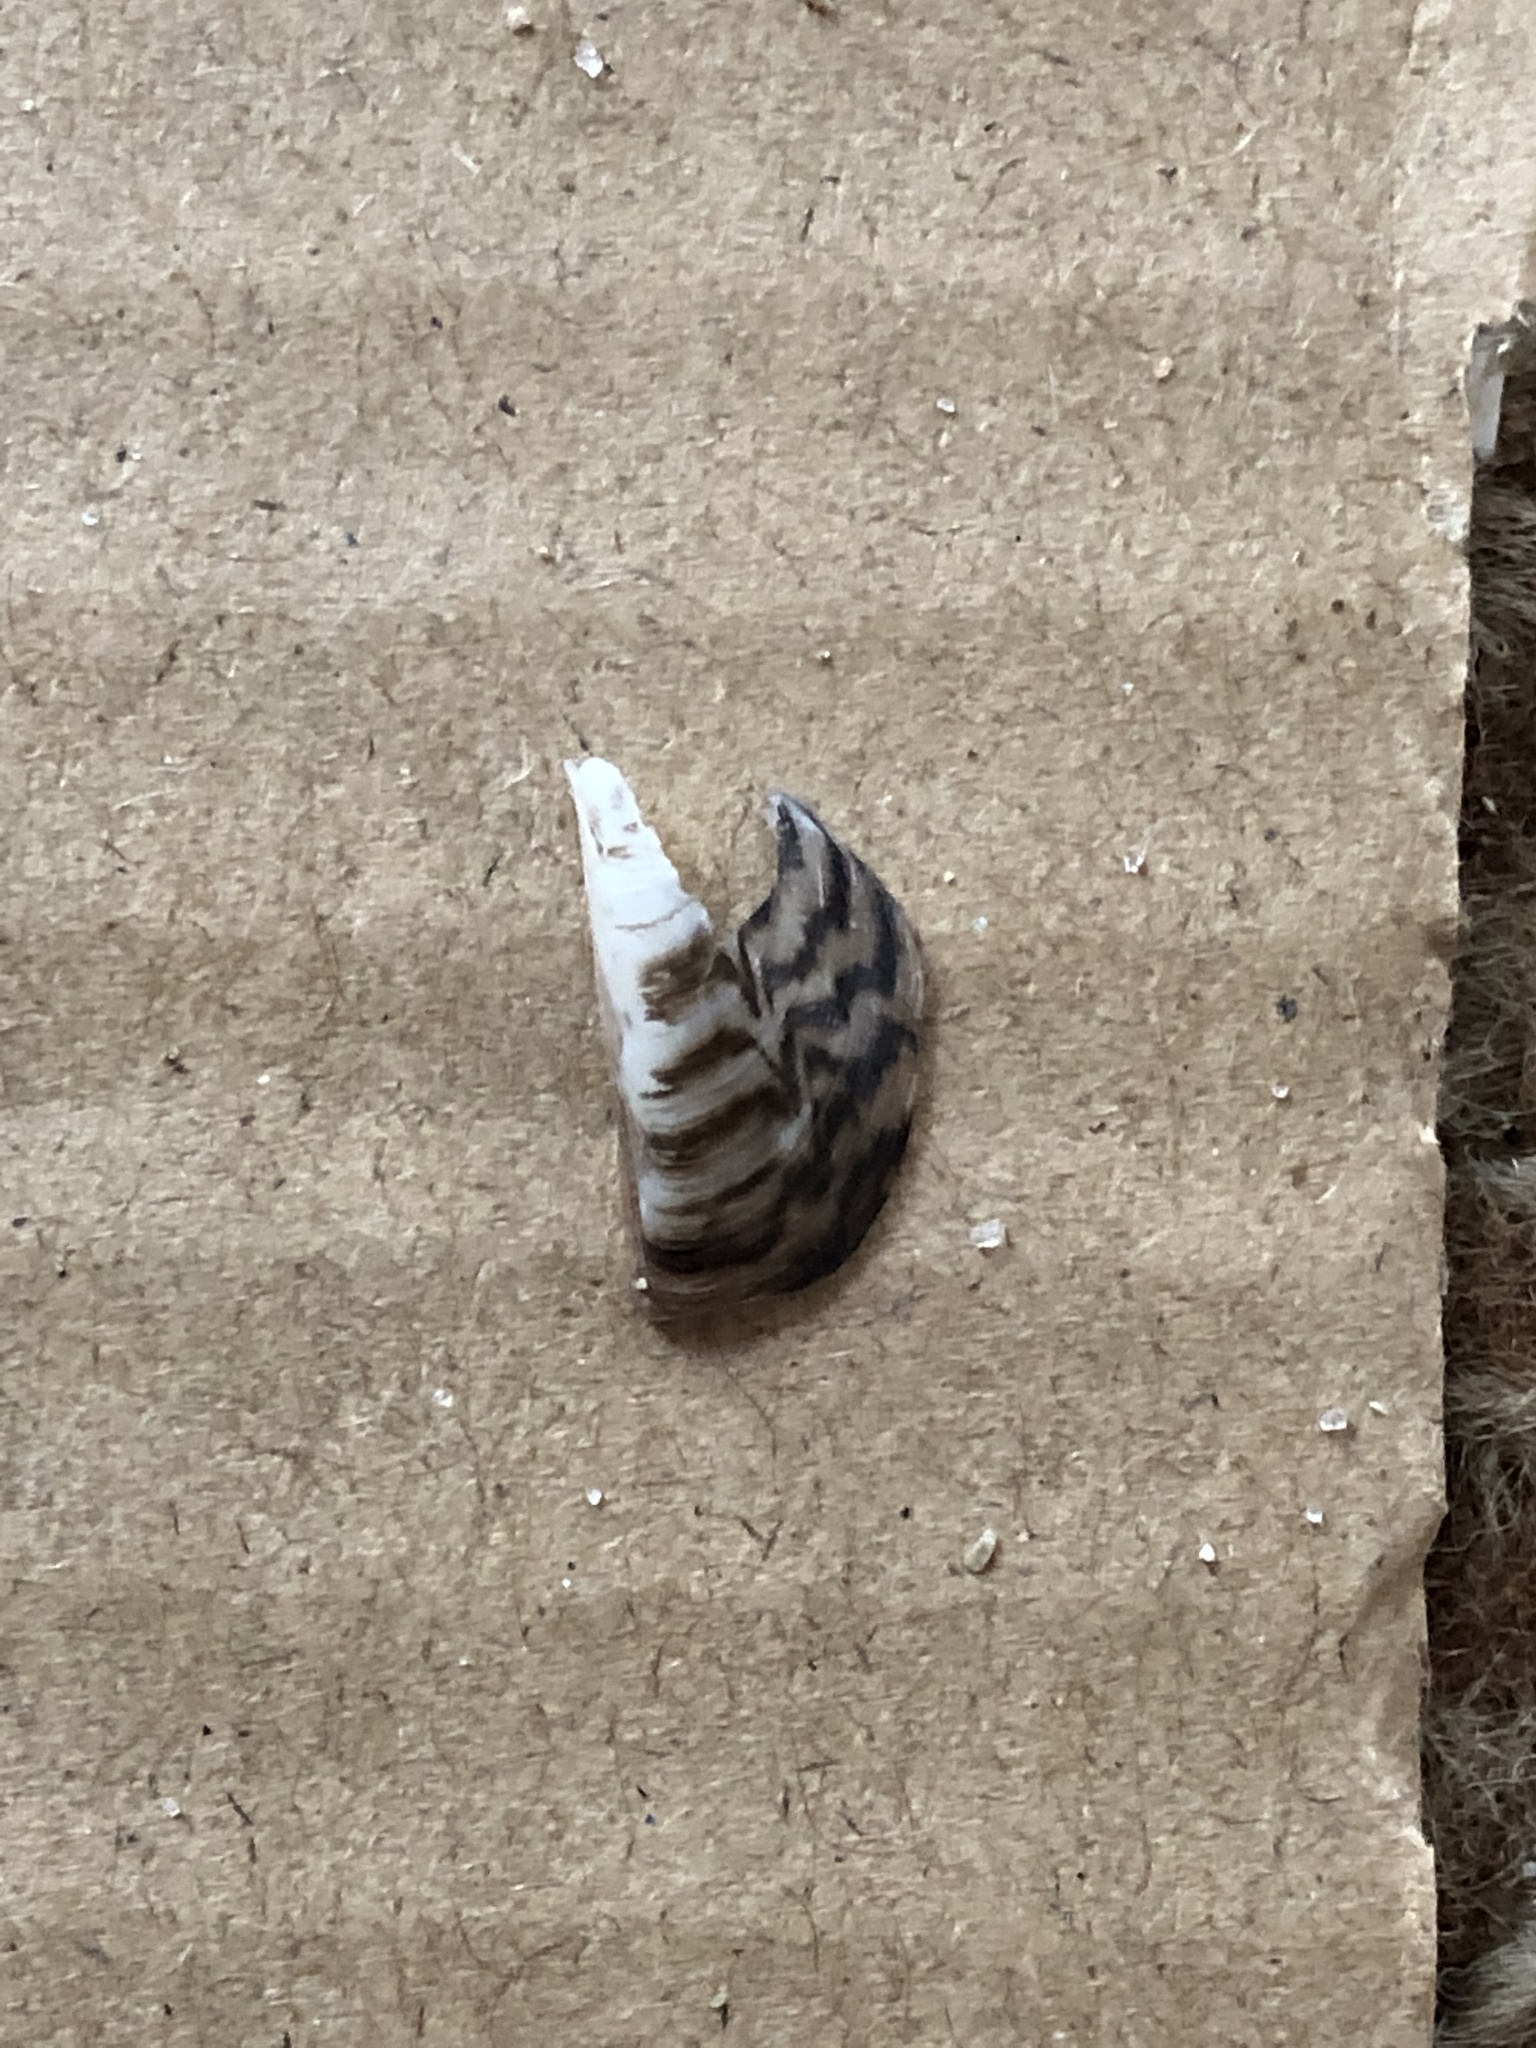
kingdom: Animalia
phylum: Mollusca
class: Bivalvia
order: Myida
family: Dreissenidae
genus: Dreissena
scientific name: Dreissena polymorpha
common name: Zebra mussel
